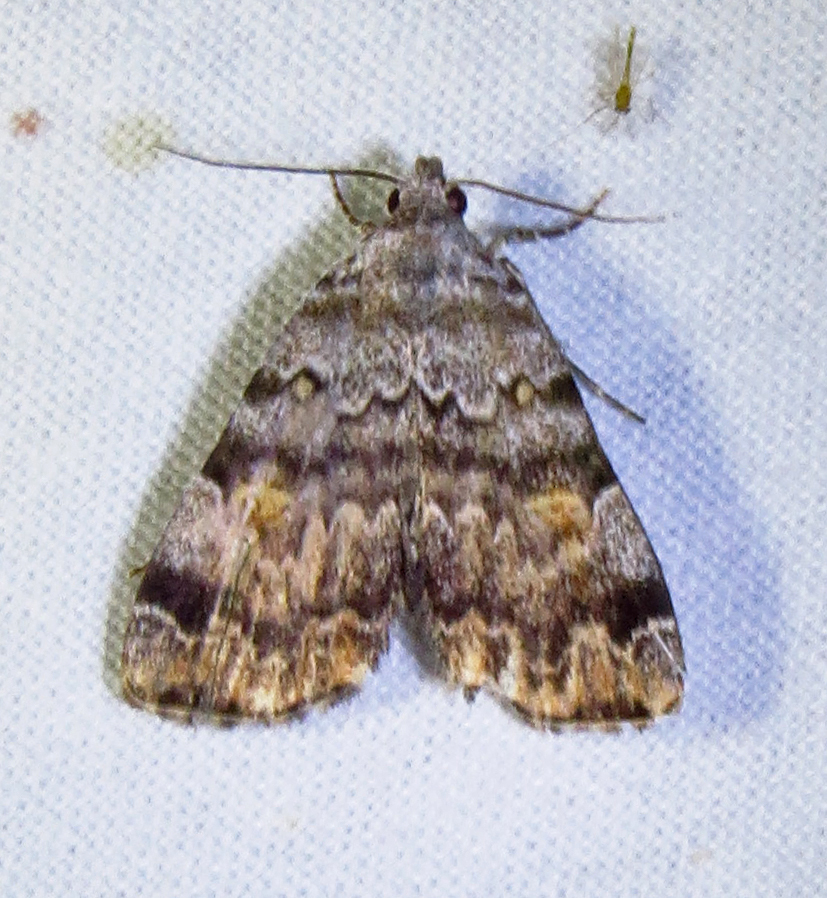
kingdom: Animalia
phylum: Arthropoda
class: Insecta
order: Lepidoptera
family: Erebidae
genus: Idia
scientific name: Idia americalis
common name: American idia moth
